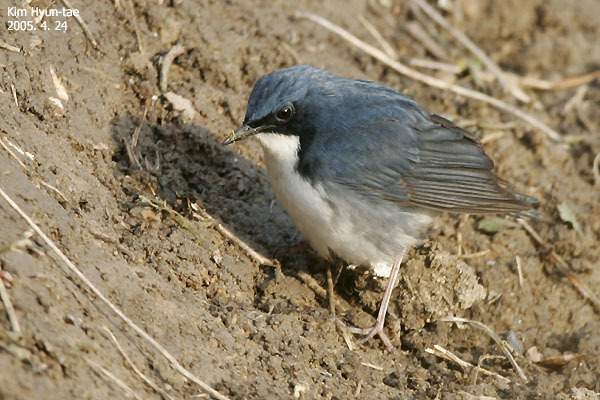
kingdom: Animalia
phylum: Chordata
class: Aves
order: Passeriformes
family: Muscicapidae
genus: Luscinia
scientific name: Luscinia cyane
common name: Siberian blue robin
